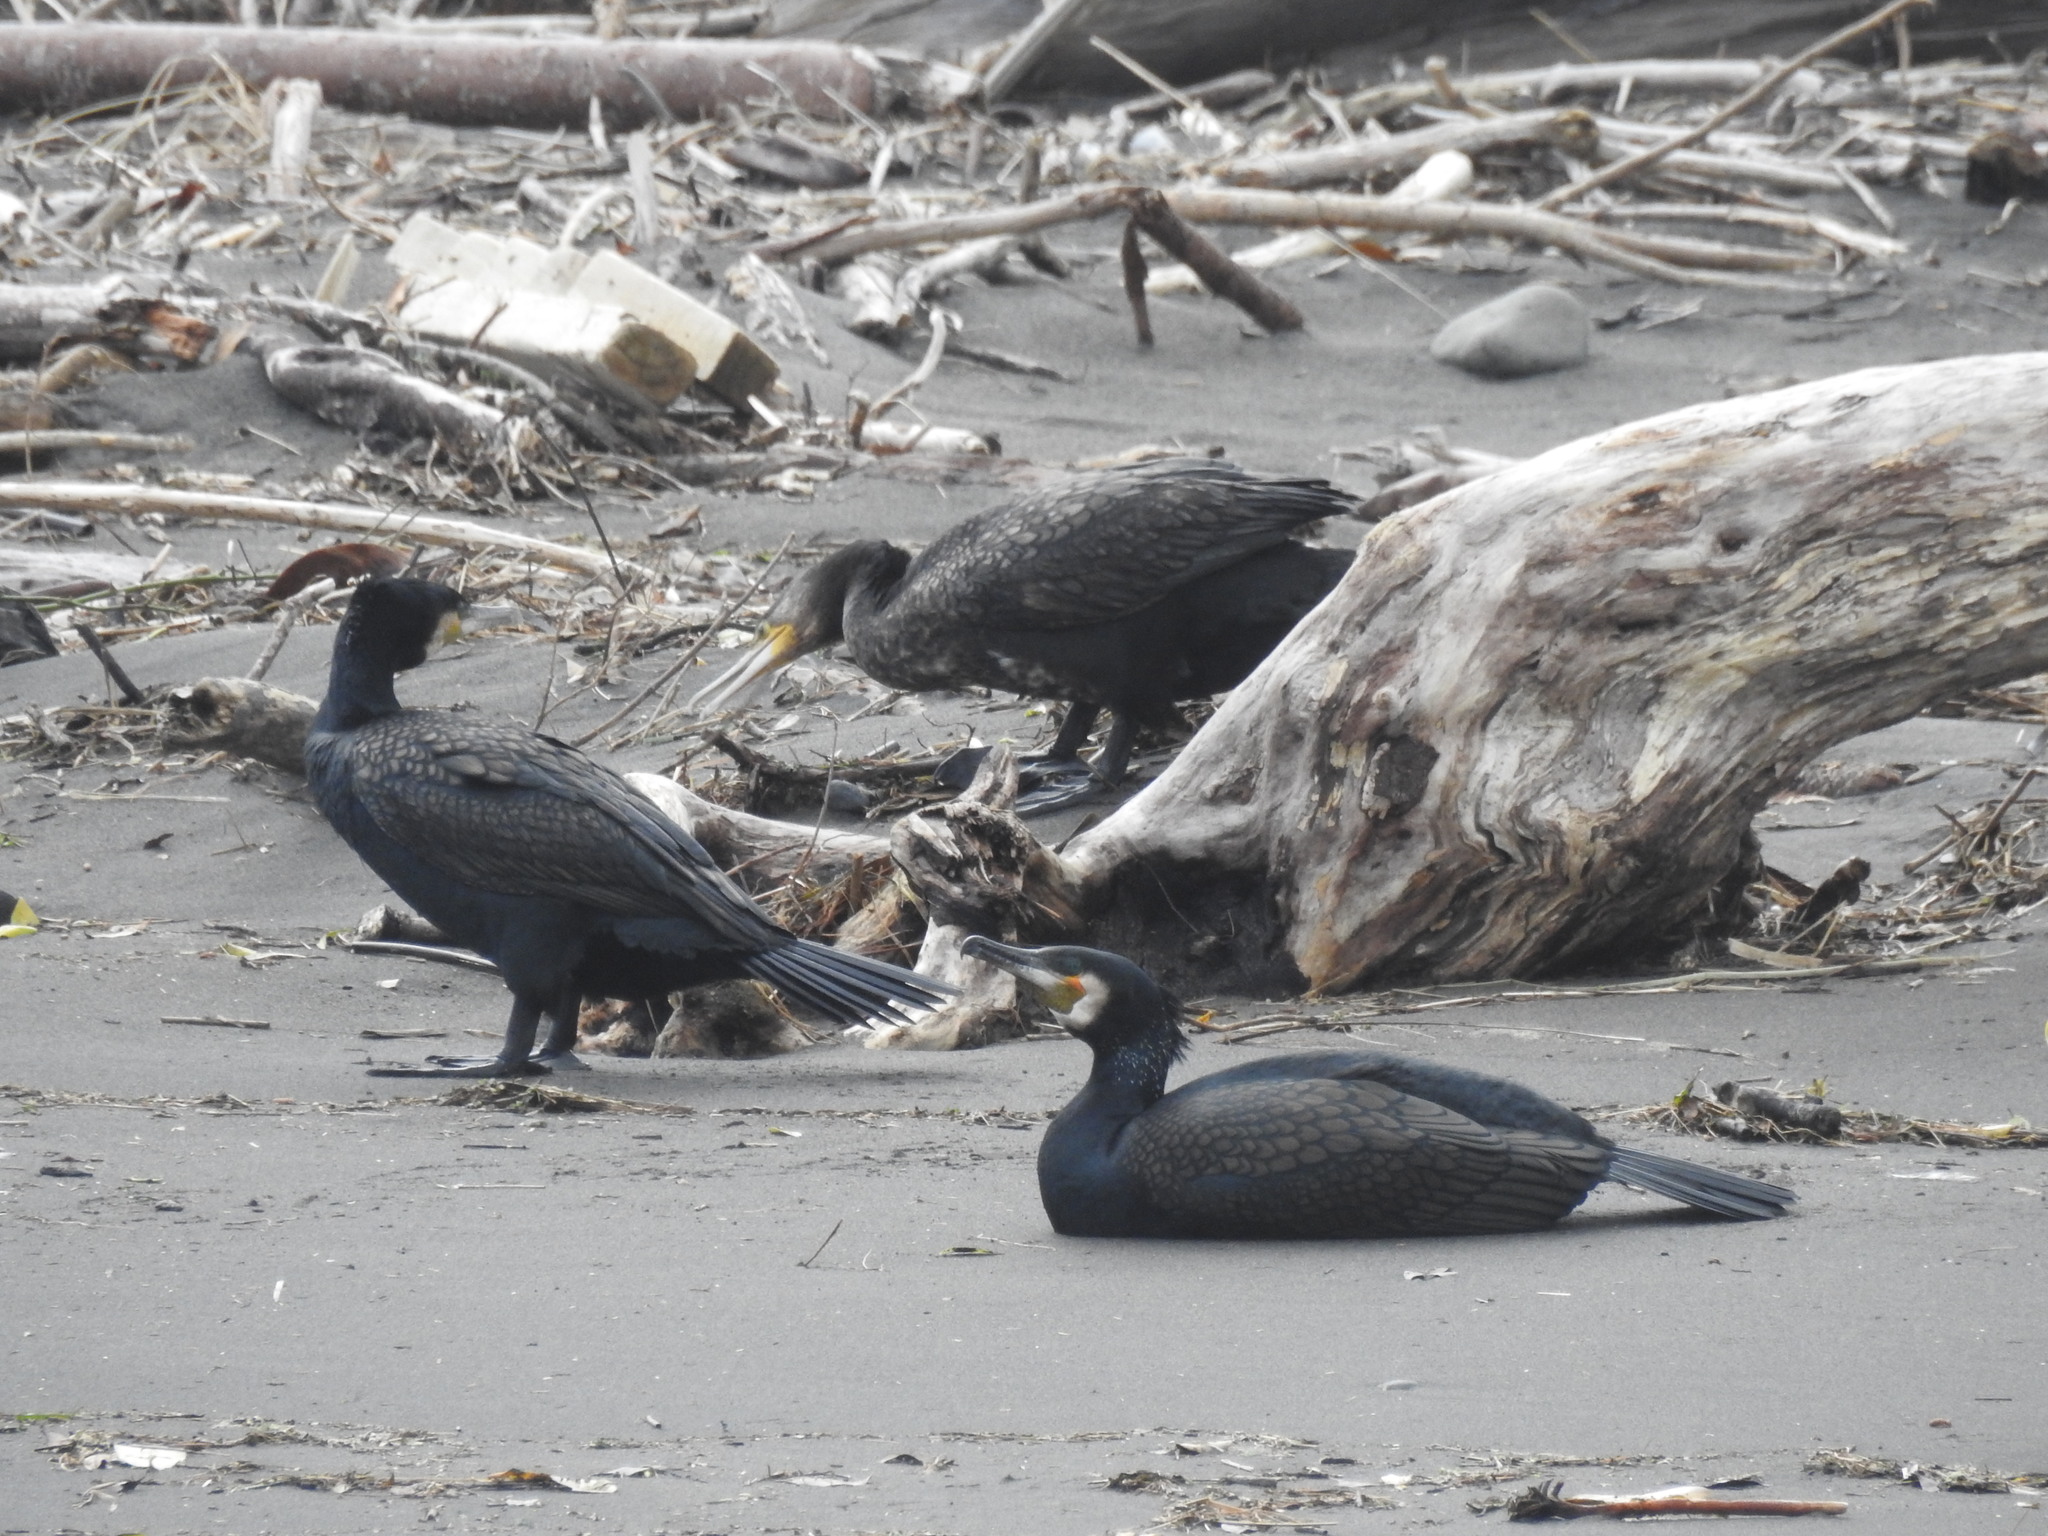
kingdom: Animalia
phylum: Chordata
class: Aves
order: Suliformes
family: Phalacrocoracidae
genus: Phalacrocorax
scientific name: Phalacrocorax carbo
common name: Great cormorant
